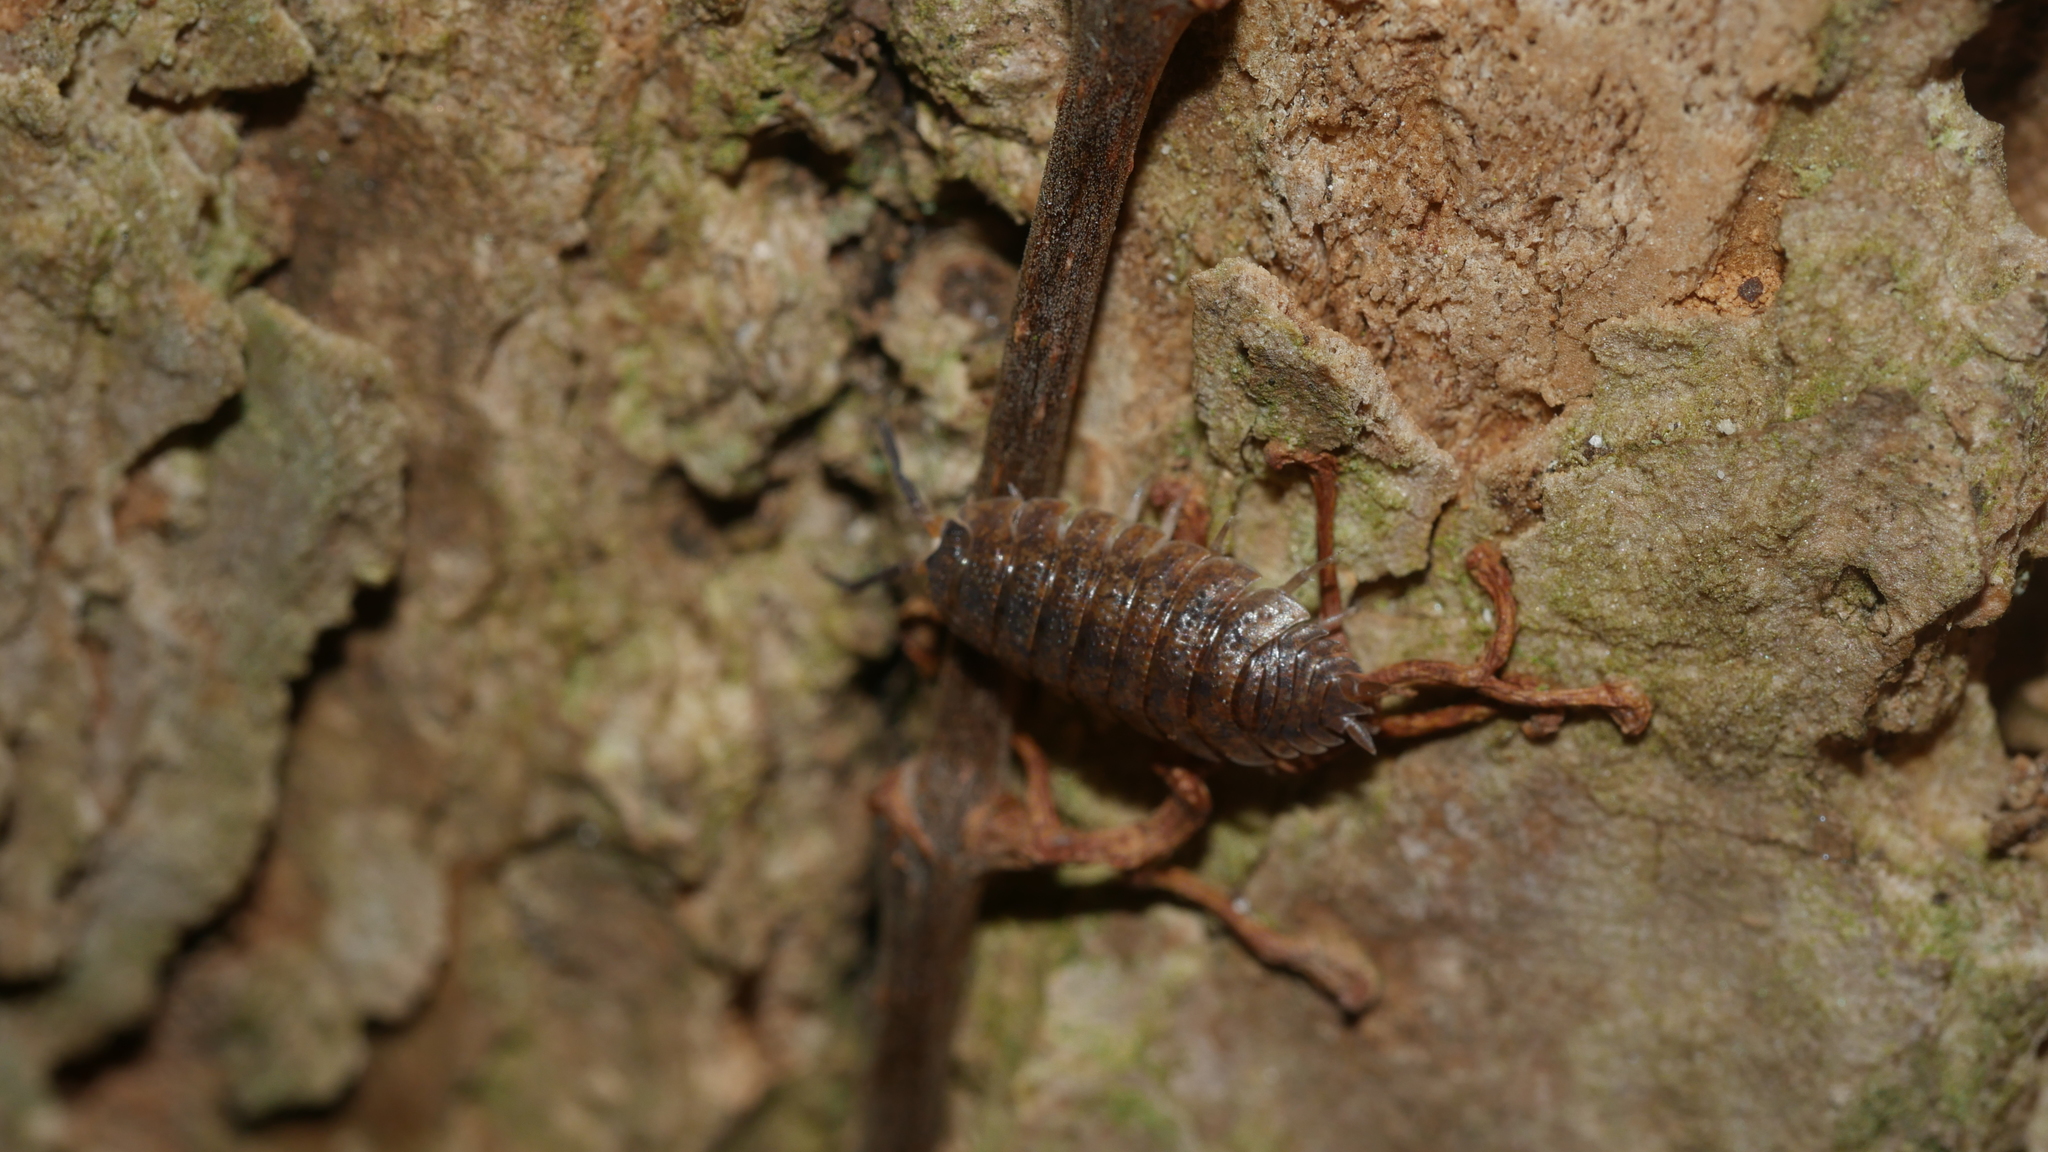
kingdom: Animalia
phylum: Arthropoda
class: Malacostraca
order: Isopoda
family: Porcellionidae
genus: Porcellio
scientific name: Porcellio scaber
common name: Common rough woodlouse
